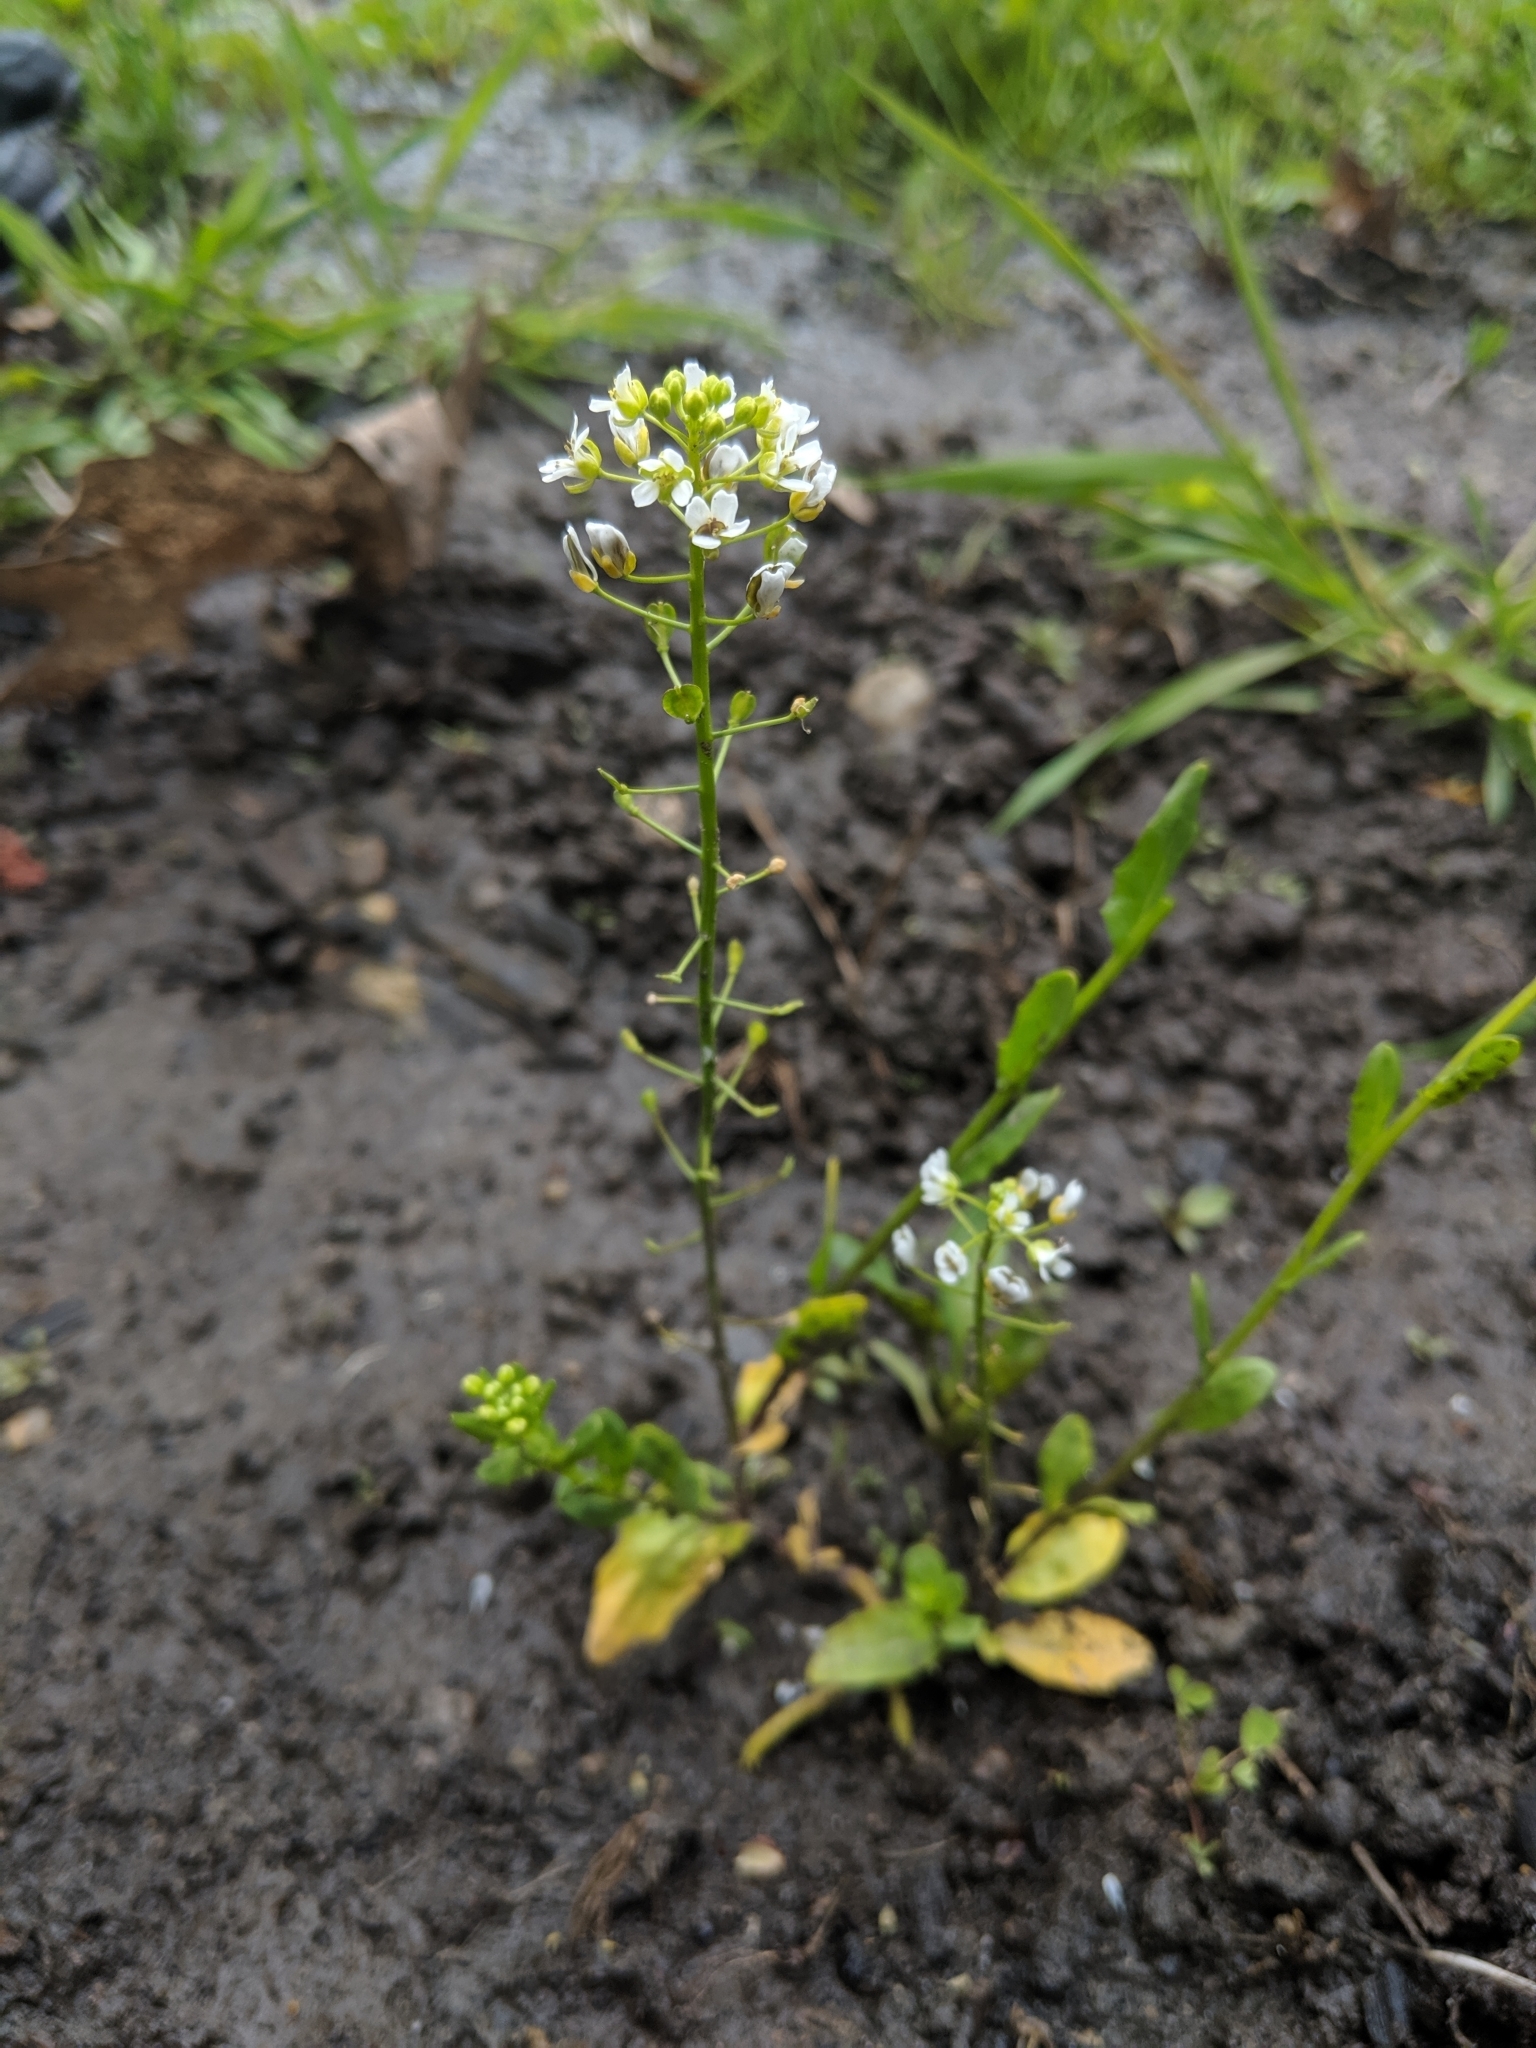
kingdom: Plantae
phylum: Tracheophyta
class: Magnoliopsida
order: Brassicales
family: Brassicaceae
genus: Thlaspi
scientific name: Thlaspi arvense
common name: Field pennycress
